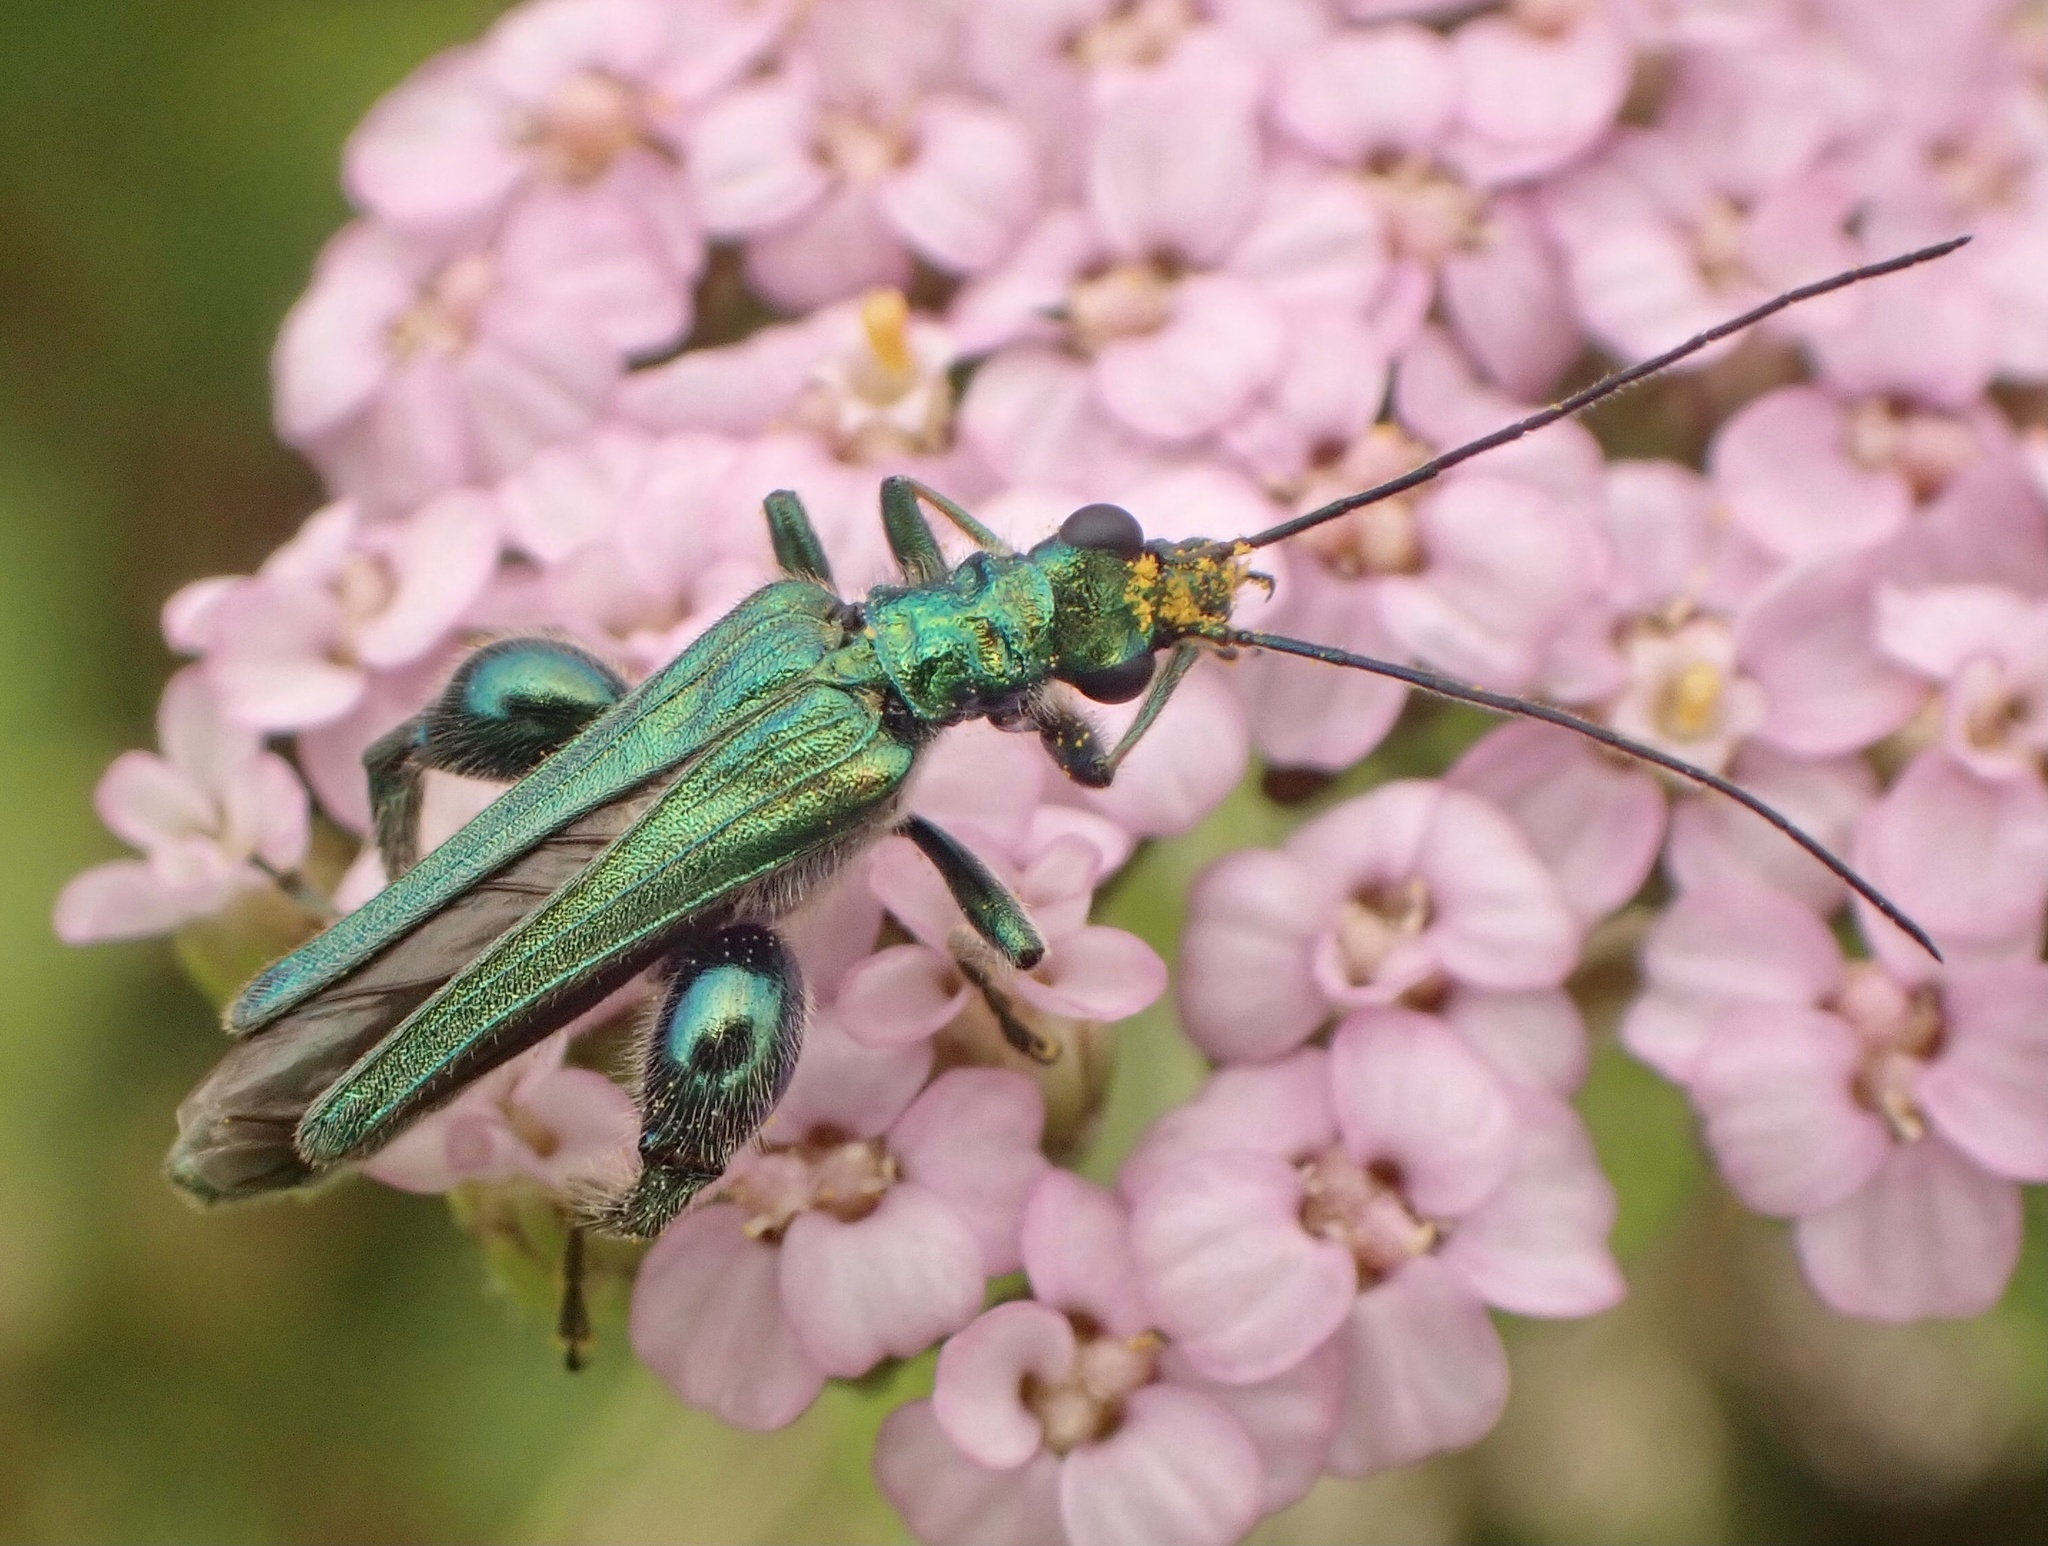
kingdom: Animalia
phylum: Arthropoda
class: Insecta
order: Coleoptera
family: Oedemeridae
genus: Oedemera
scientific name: Oedemera nobilis
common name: Swollen-thighed beetle
